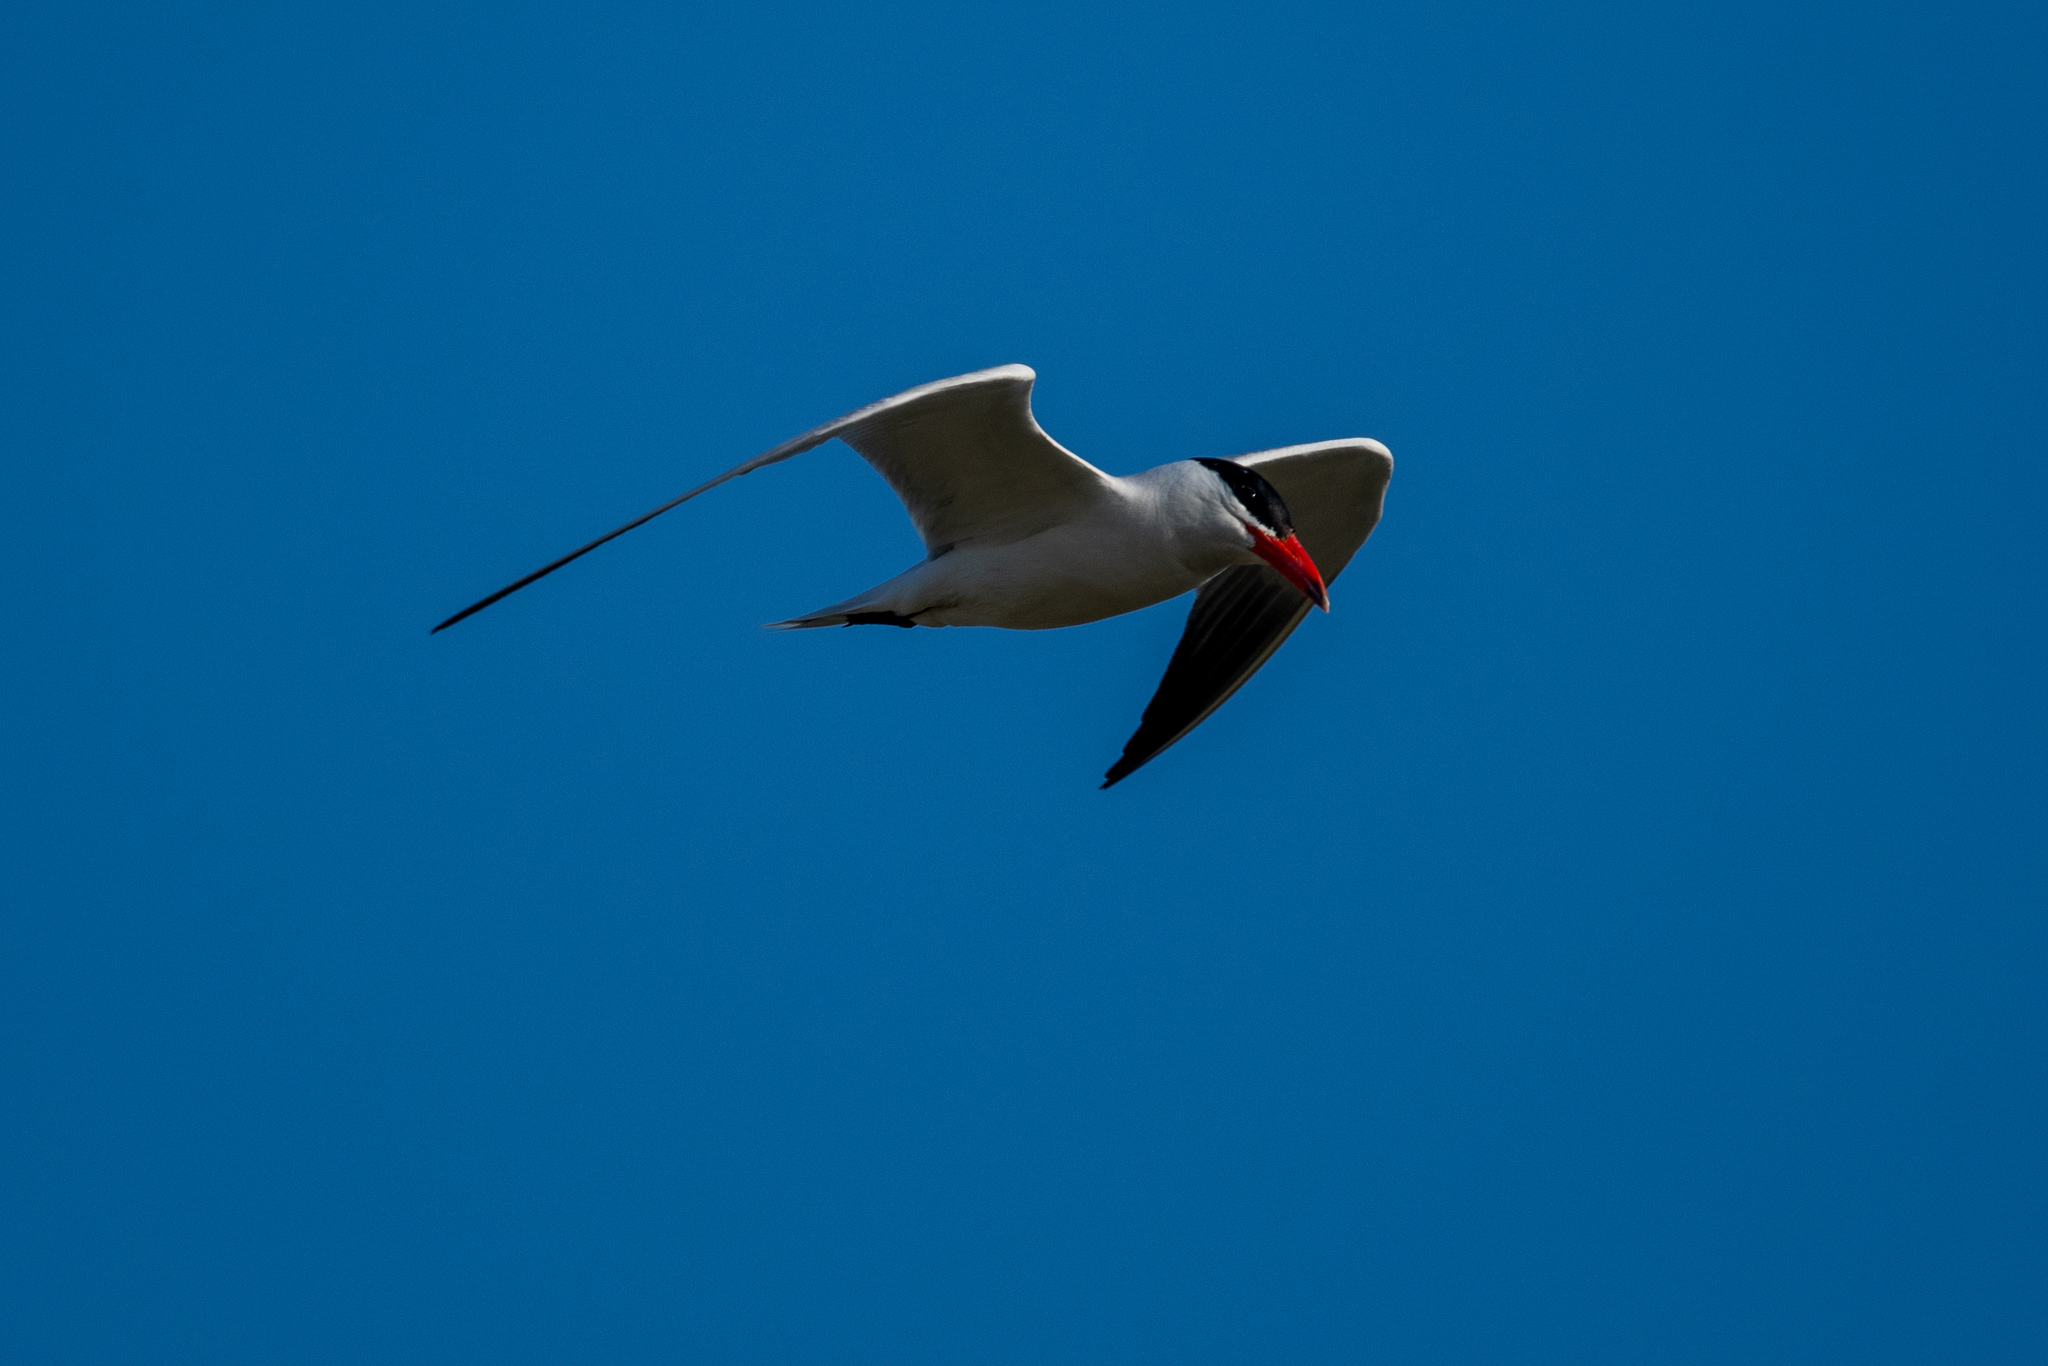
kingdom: Animalia
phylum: Chordata
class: Aves
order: Charadriiformes
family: Laridae
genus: Hydroprogne
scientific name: Hydroprogne caspia
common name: Caspian tern
